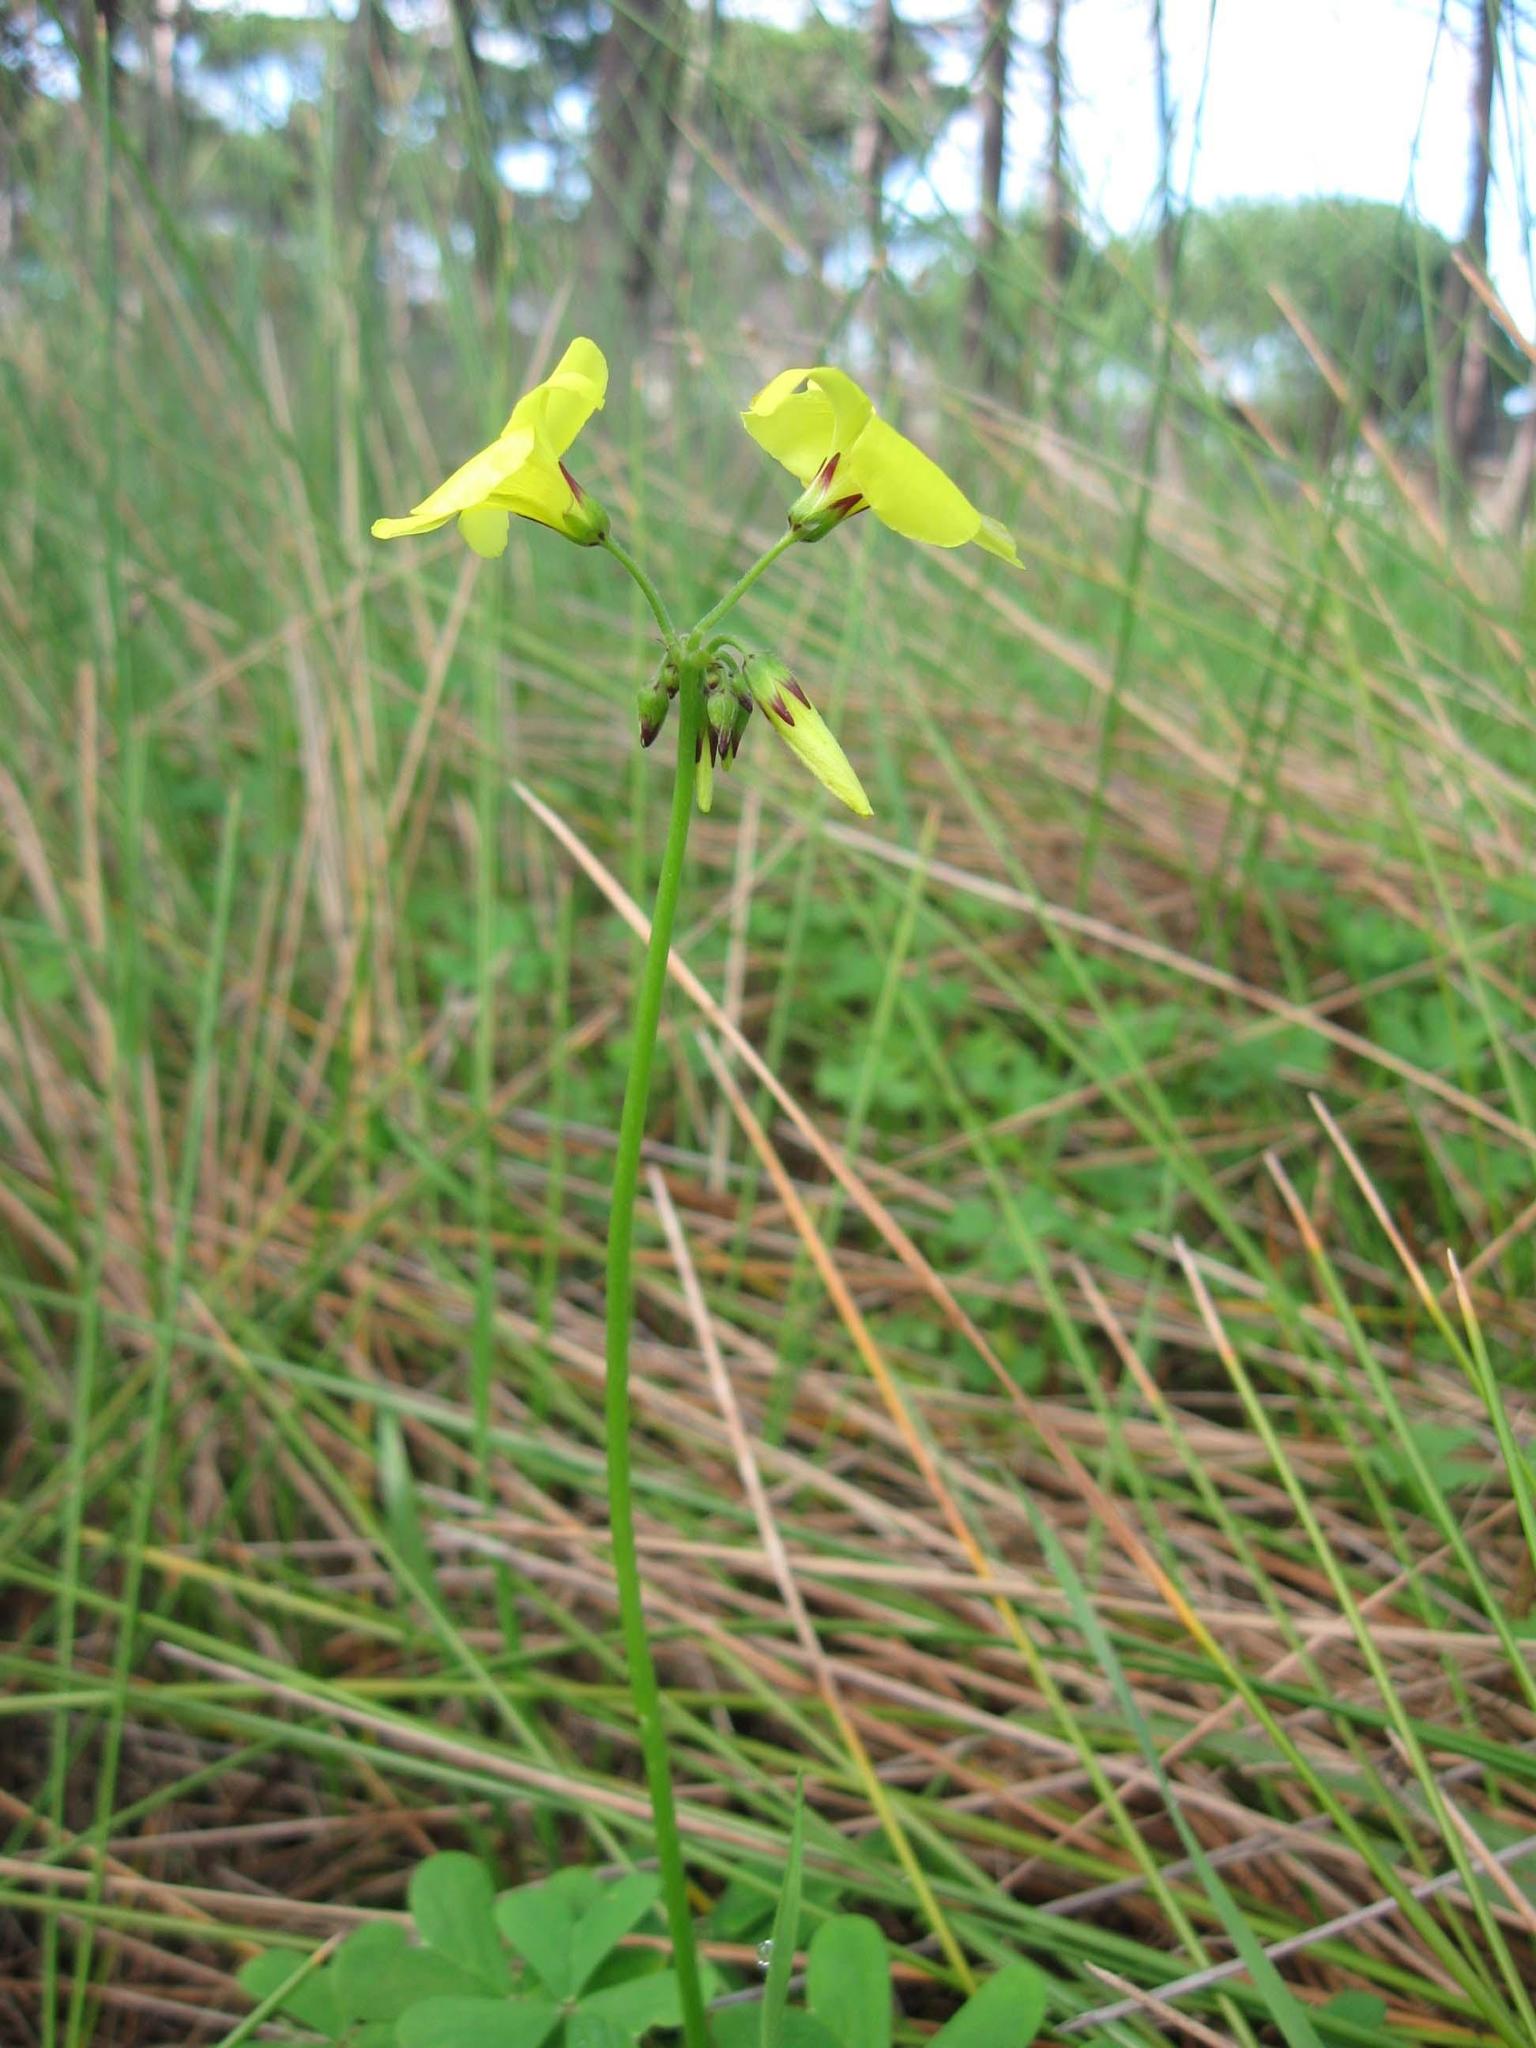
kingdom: Plantae
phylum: Tracheophyta
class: Magnoliopsida
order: Oxalidales
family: Oxalidaceae
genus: Oxalis
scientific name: Oxalis pes-caprae
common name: Bermuda-buttercup
